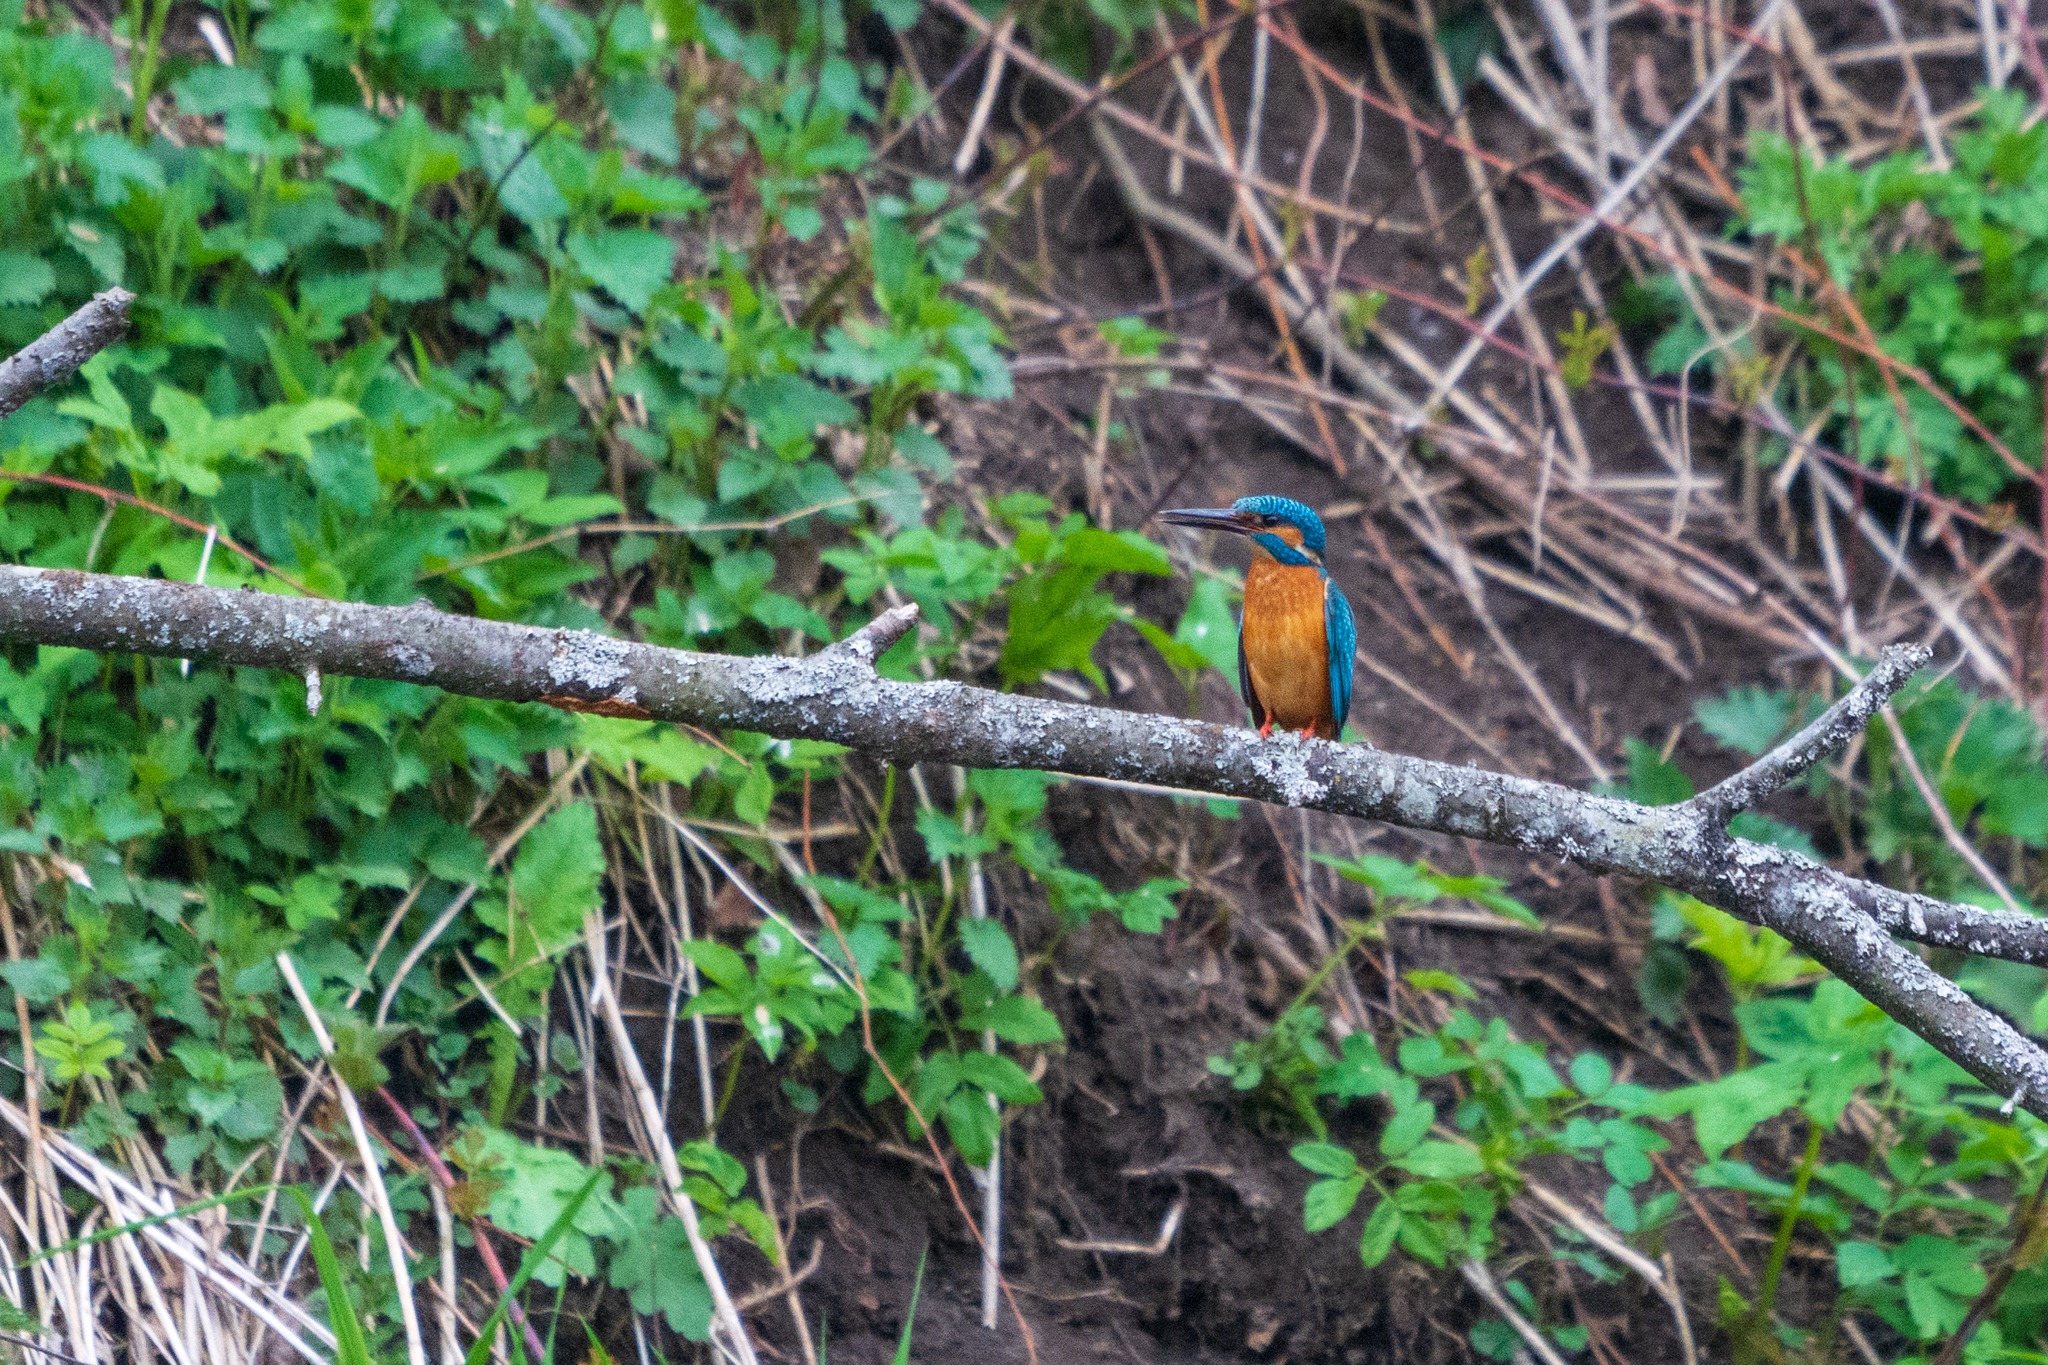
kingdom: Animalia
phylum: Chordata
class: Aves
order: Coraciiformes
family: Alcedinidae
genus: Alcedo
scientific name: Alcedo atthis
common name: Common kingfisher
